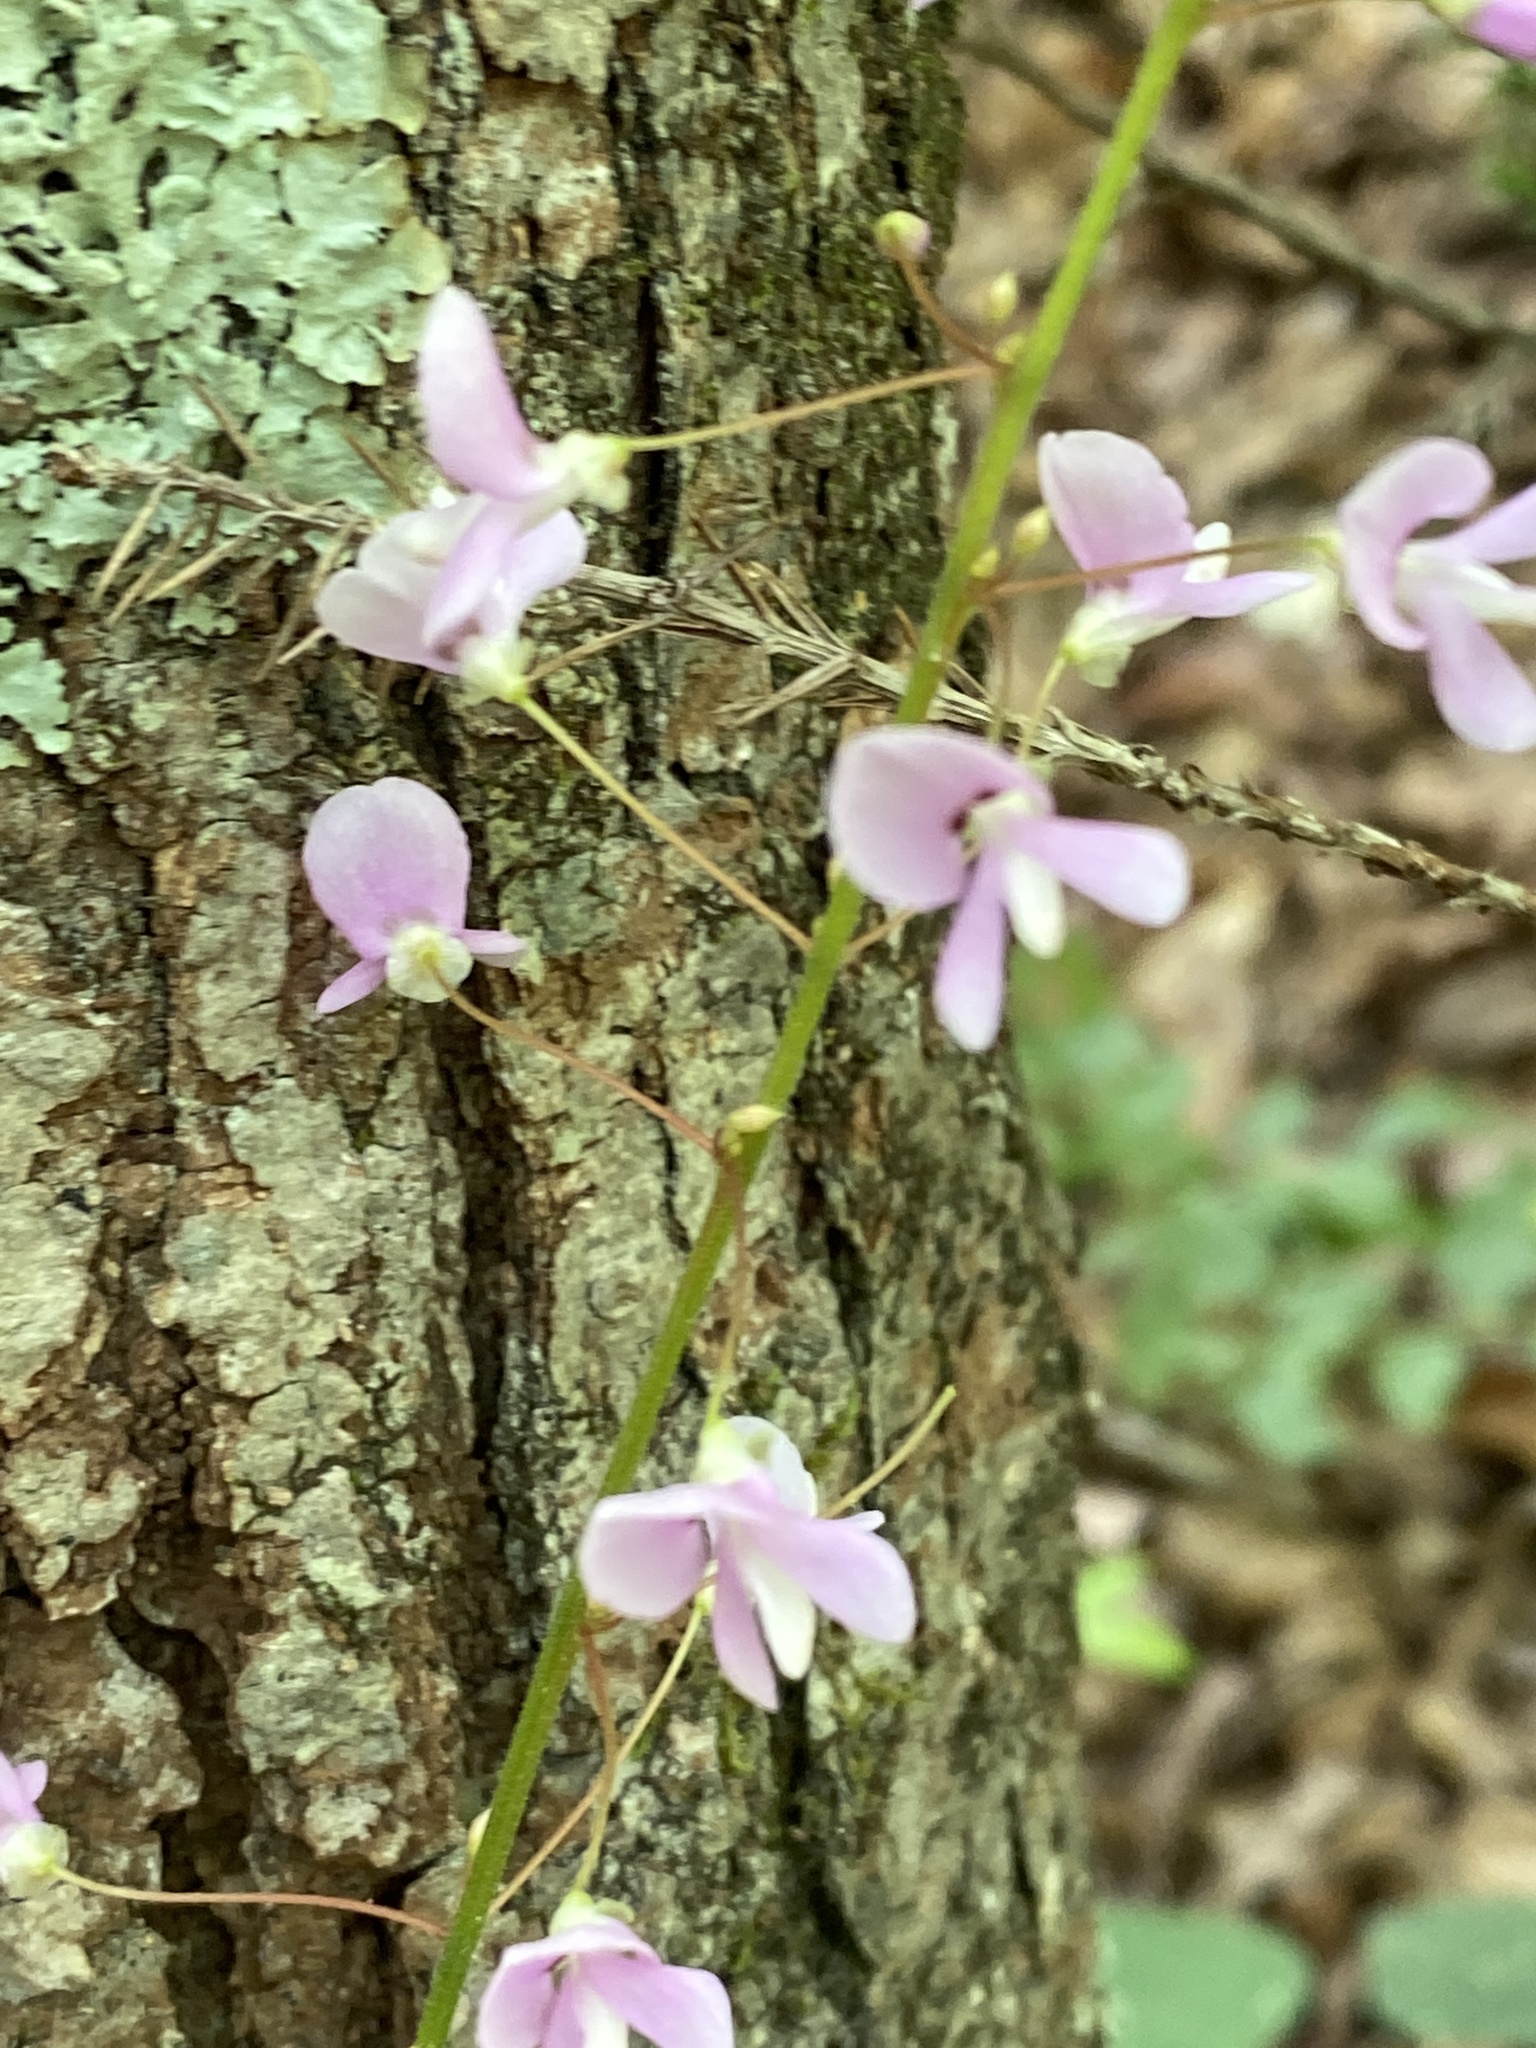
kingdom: Plantae
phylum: Tracheophyta
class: Magnoliopsida
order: Fabales
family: Fabaceae
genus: Hylodesmum
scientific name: Hylodesmum nudiflorum
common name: Bare-stemmed tick-trefoil
